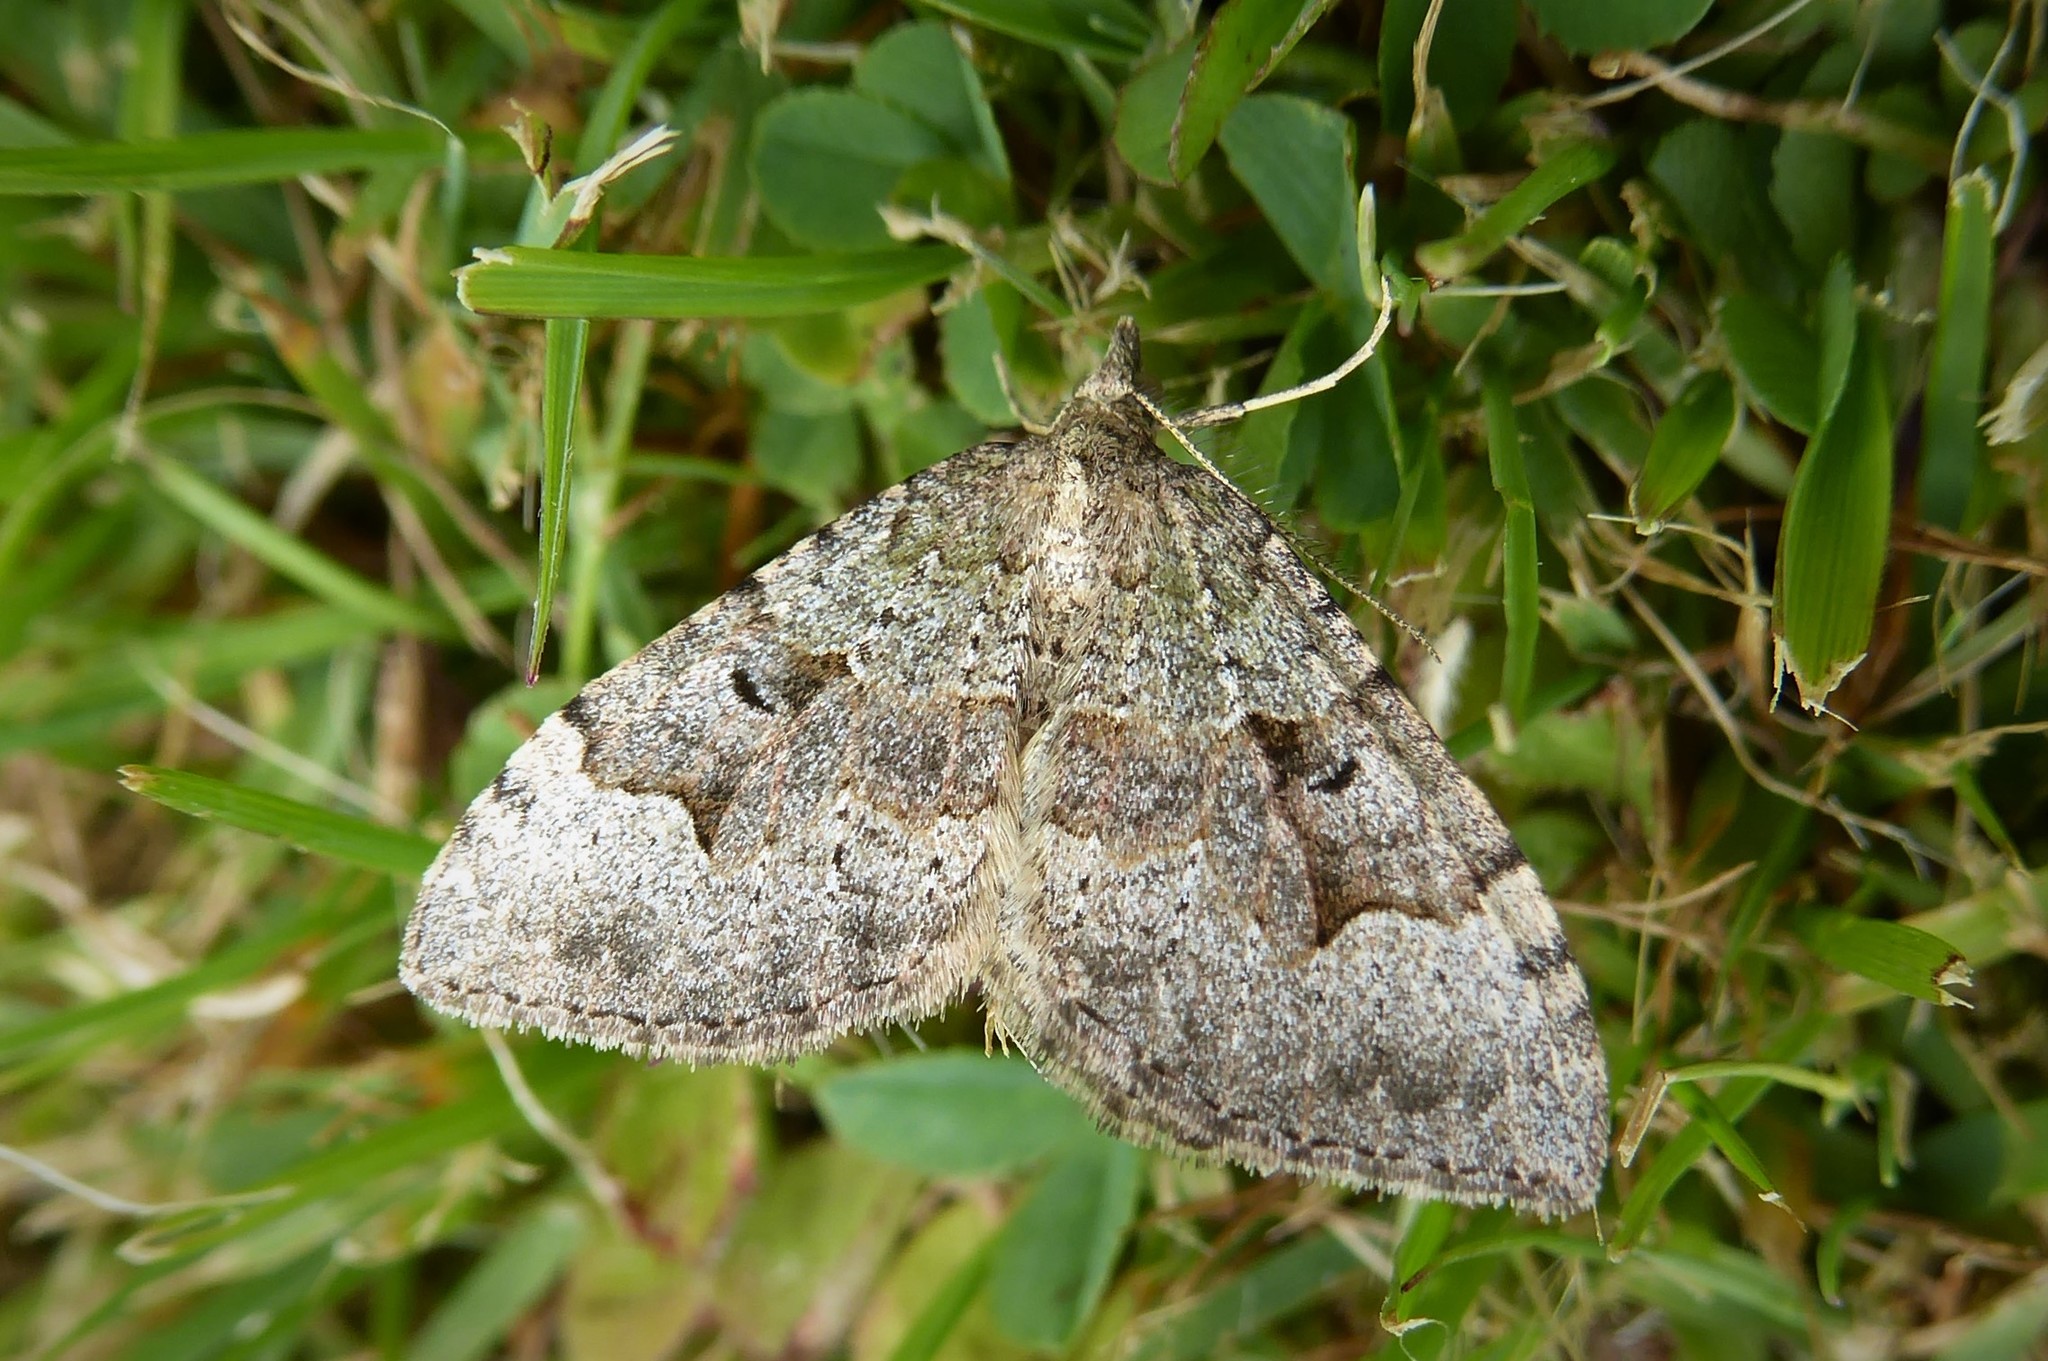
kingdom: Animalia
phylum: Arthropoda
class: Insecta
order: Lepidoptera
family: Geometridae
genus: Epyaxa
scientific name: Epyaxa rosearia
